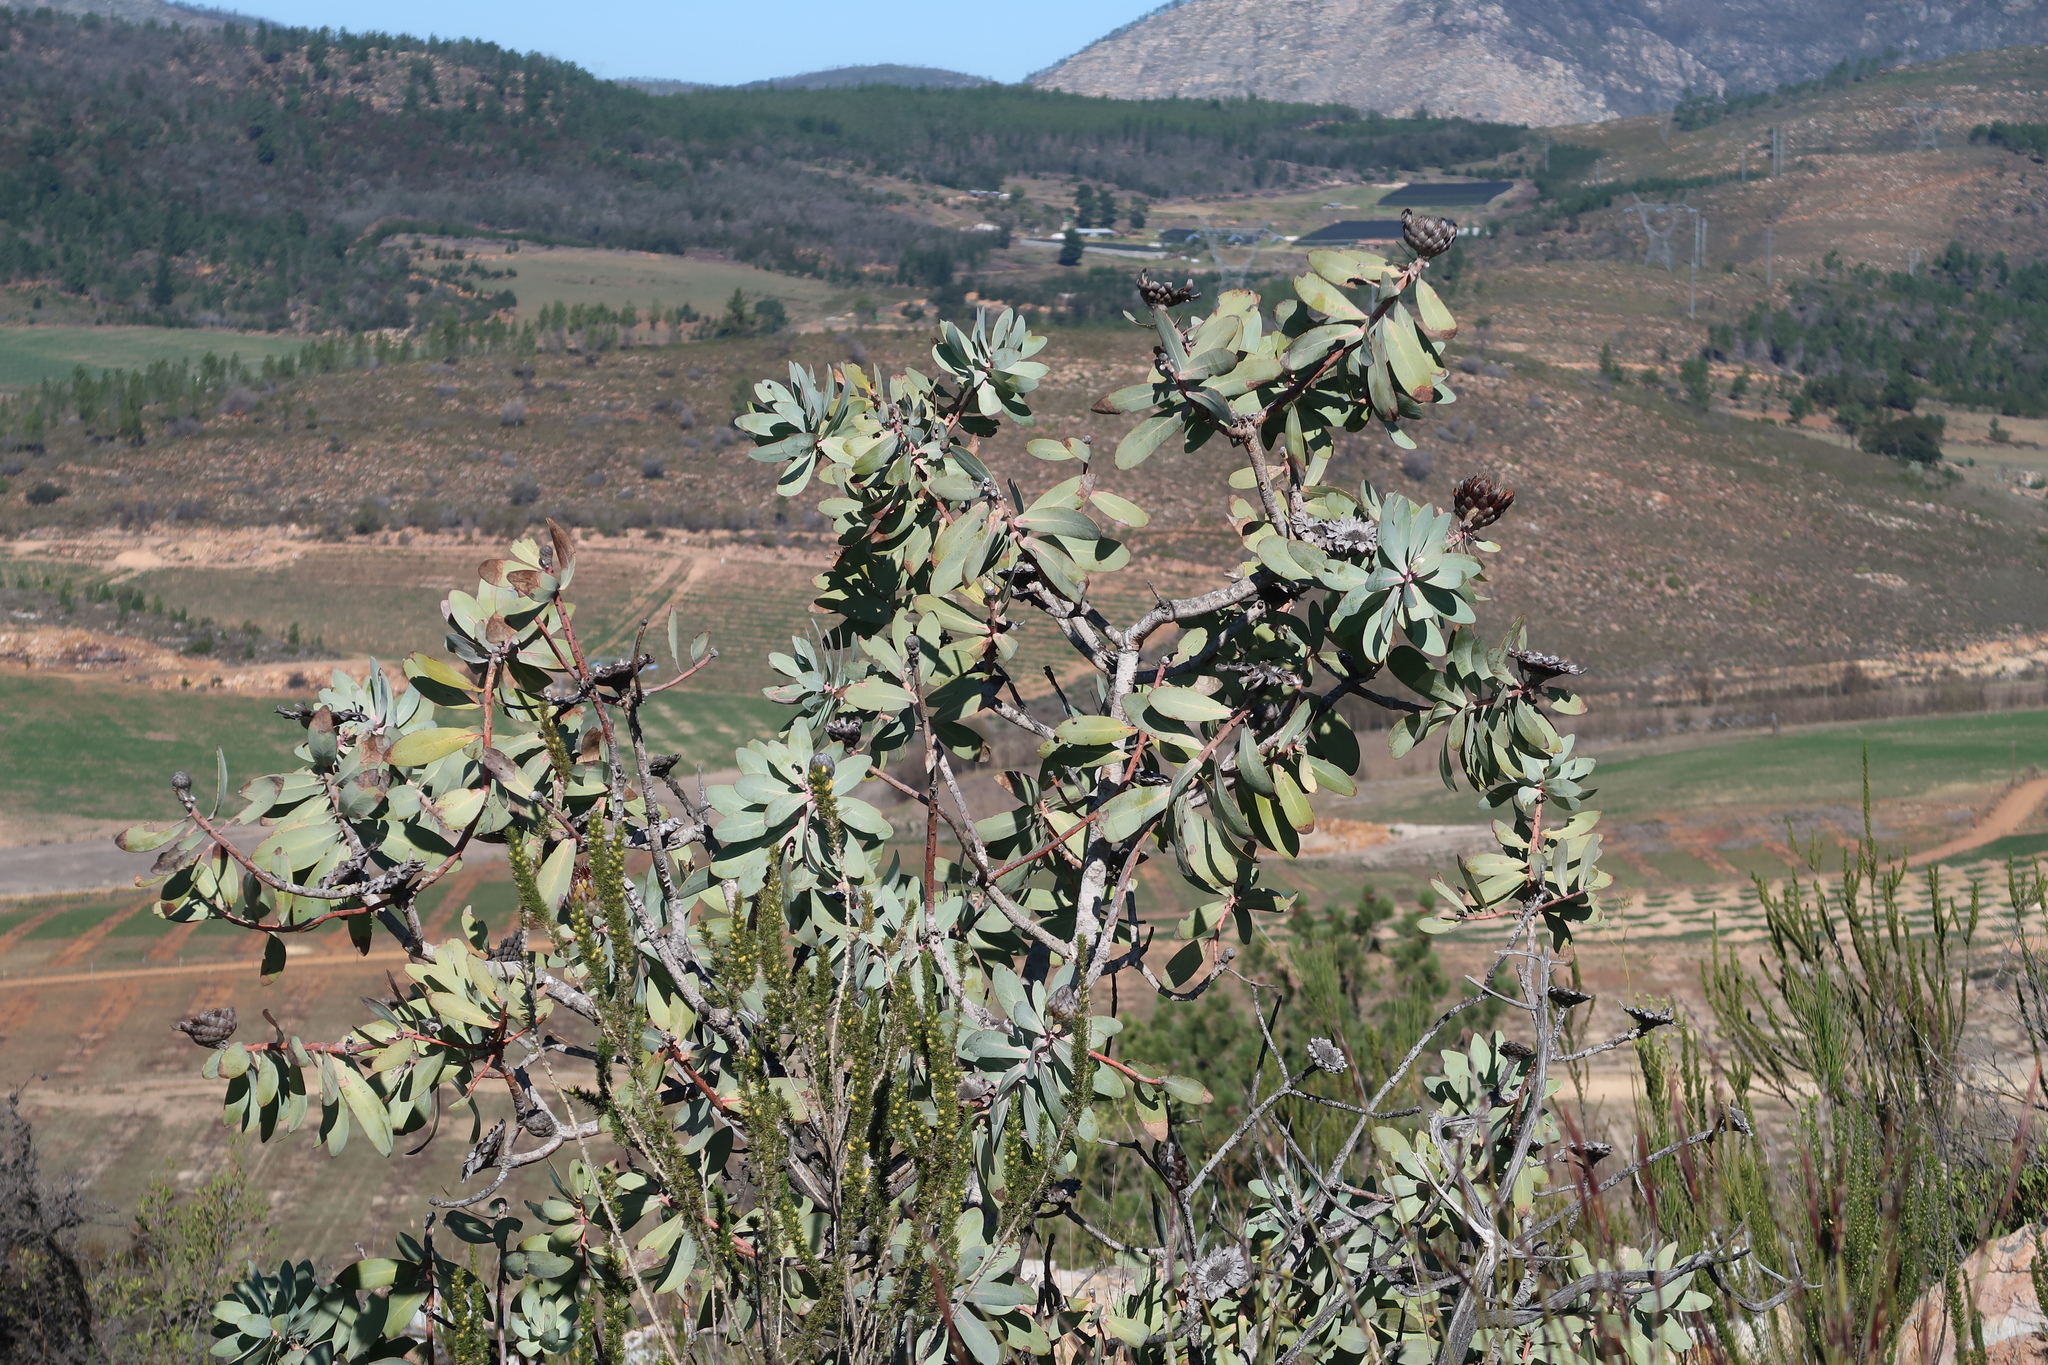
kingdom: Plantae
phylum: Tracheophyta
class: Magnoliopsida
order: Proteales
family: Proteaceae
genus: Protea
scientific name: Protea nitida
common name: Tree protea
